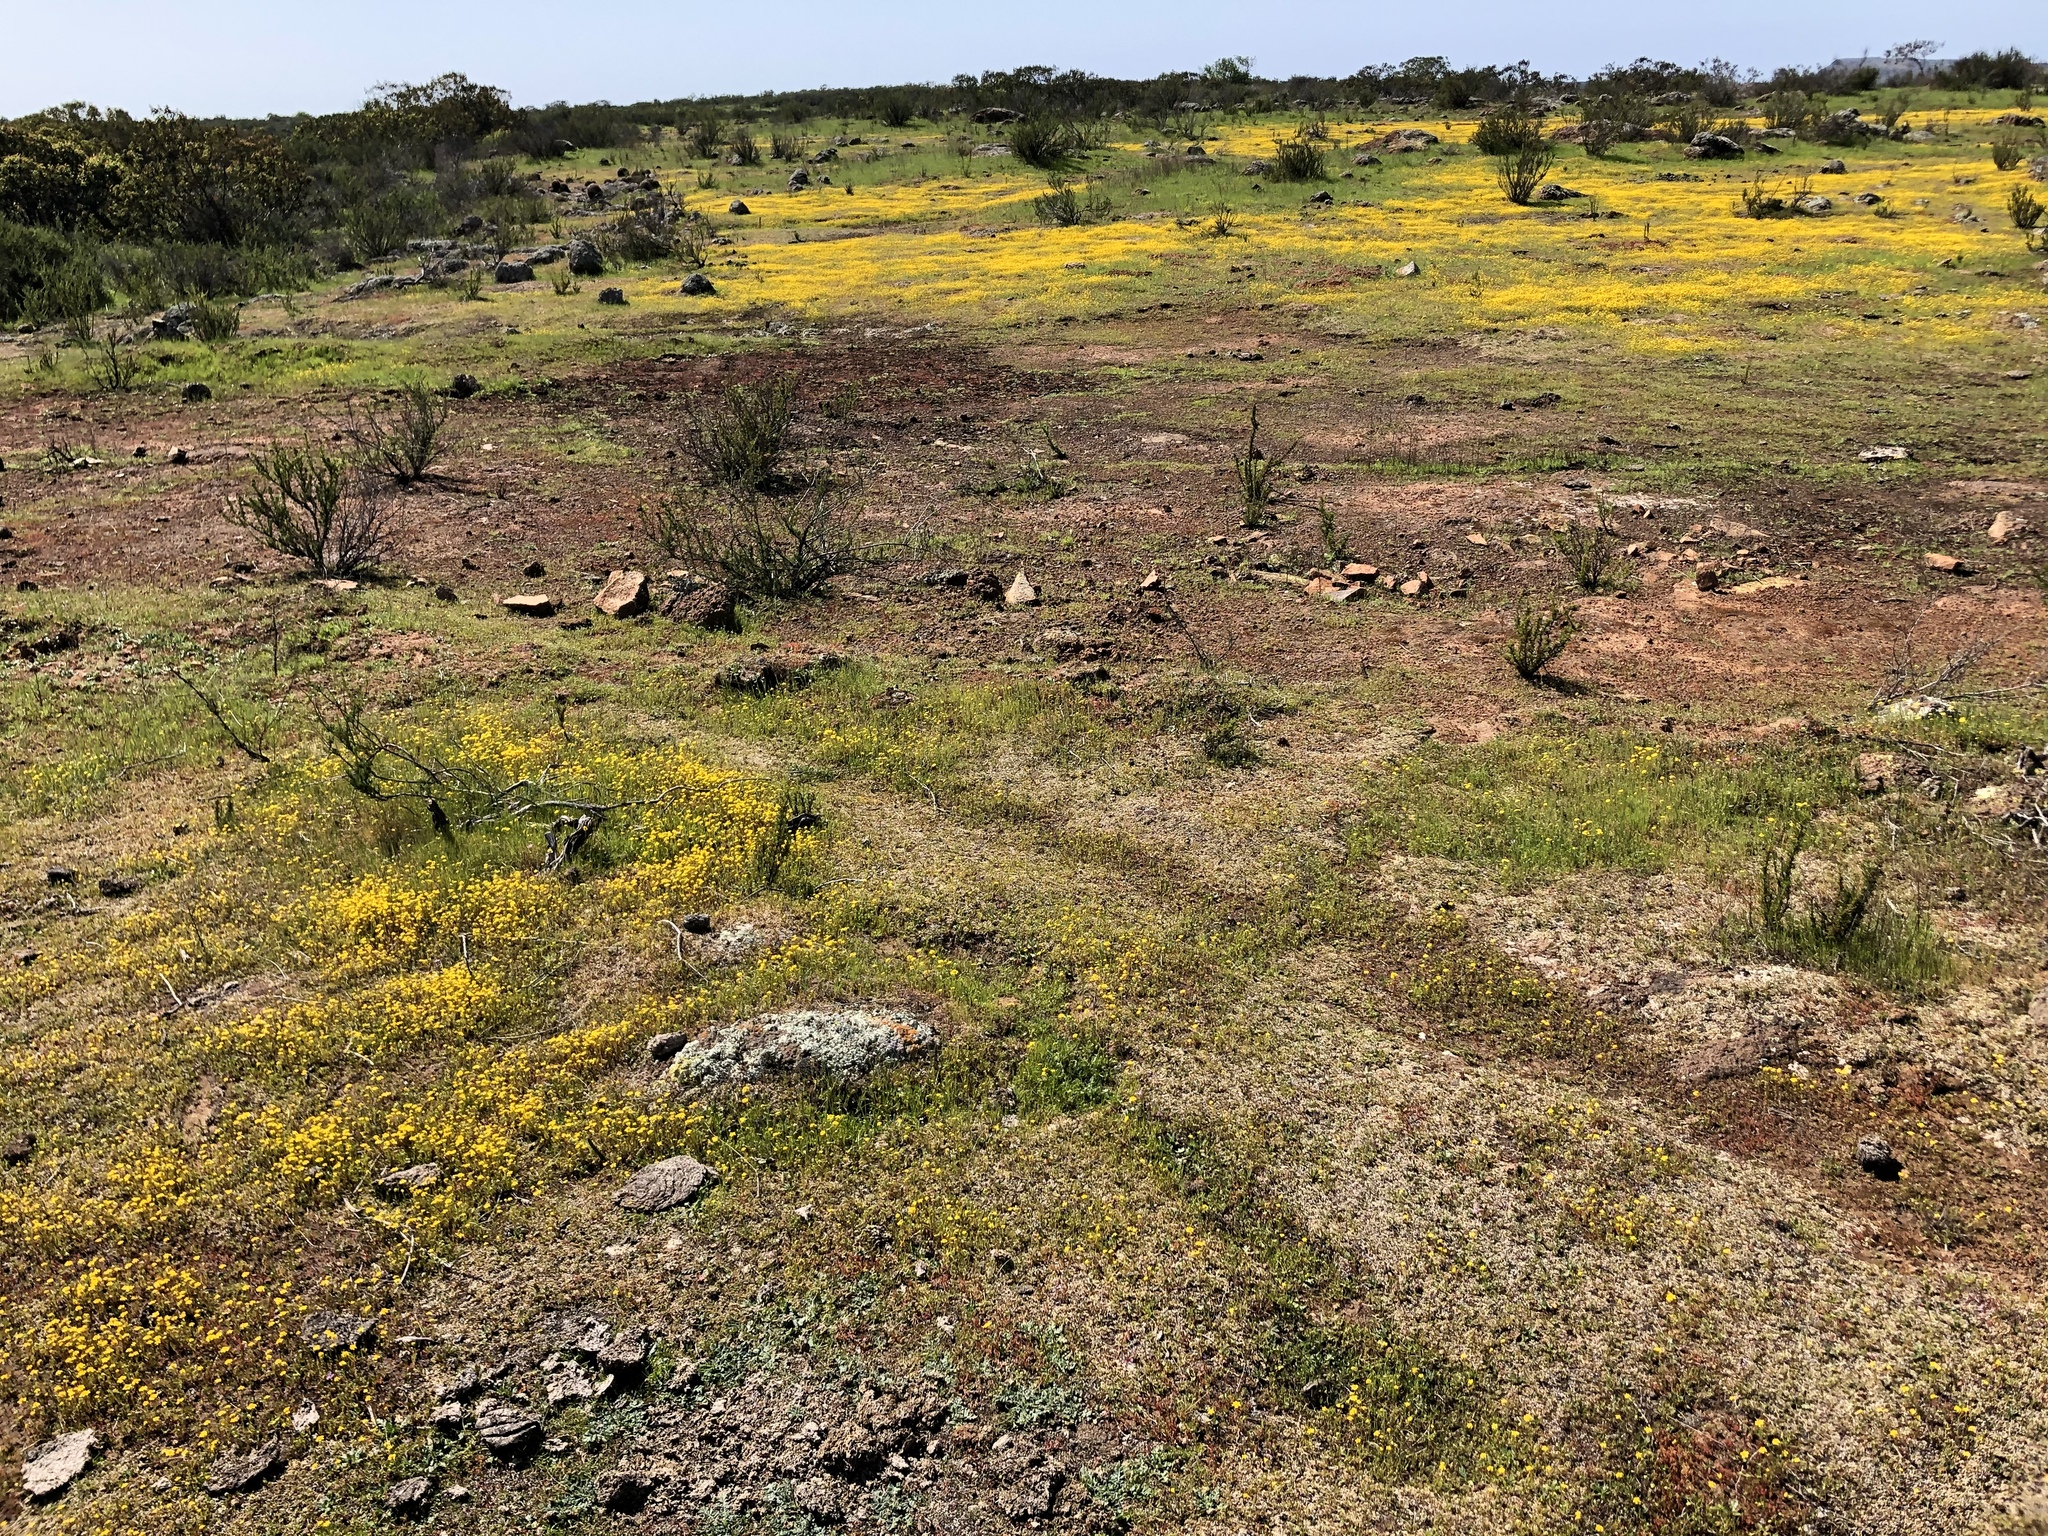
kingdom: Plantae
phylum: Tracheophyta
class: Magnoliopsida
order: Asterales
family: Asteraceae
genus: Lasthenia
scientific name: Lasthenia gracilis
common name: Common goldfields
